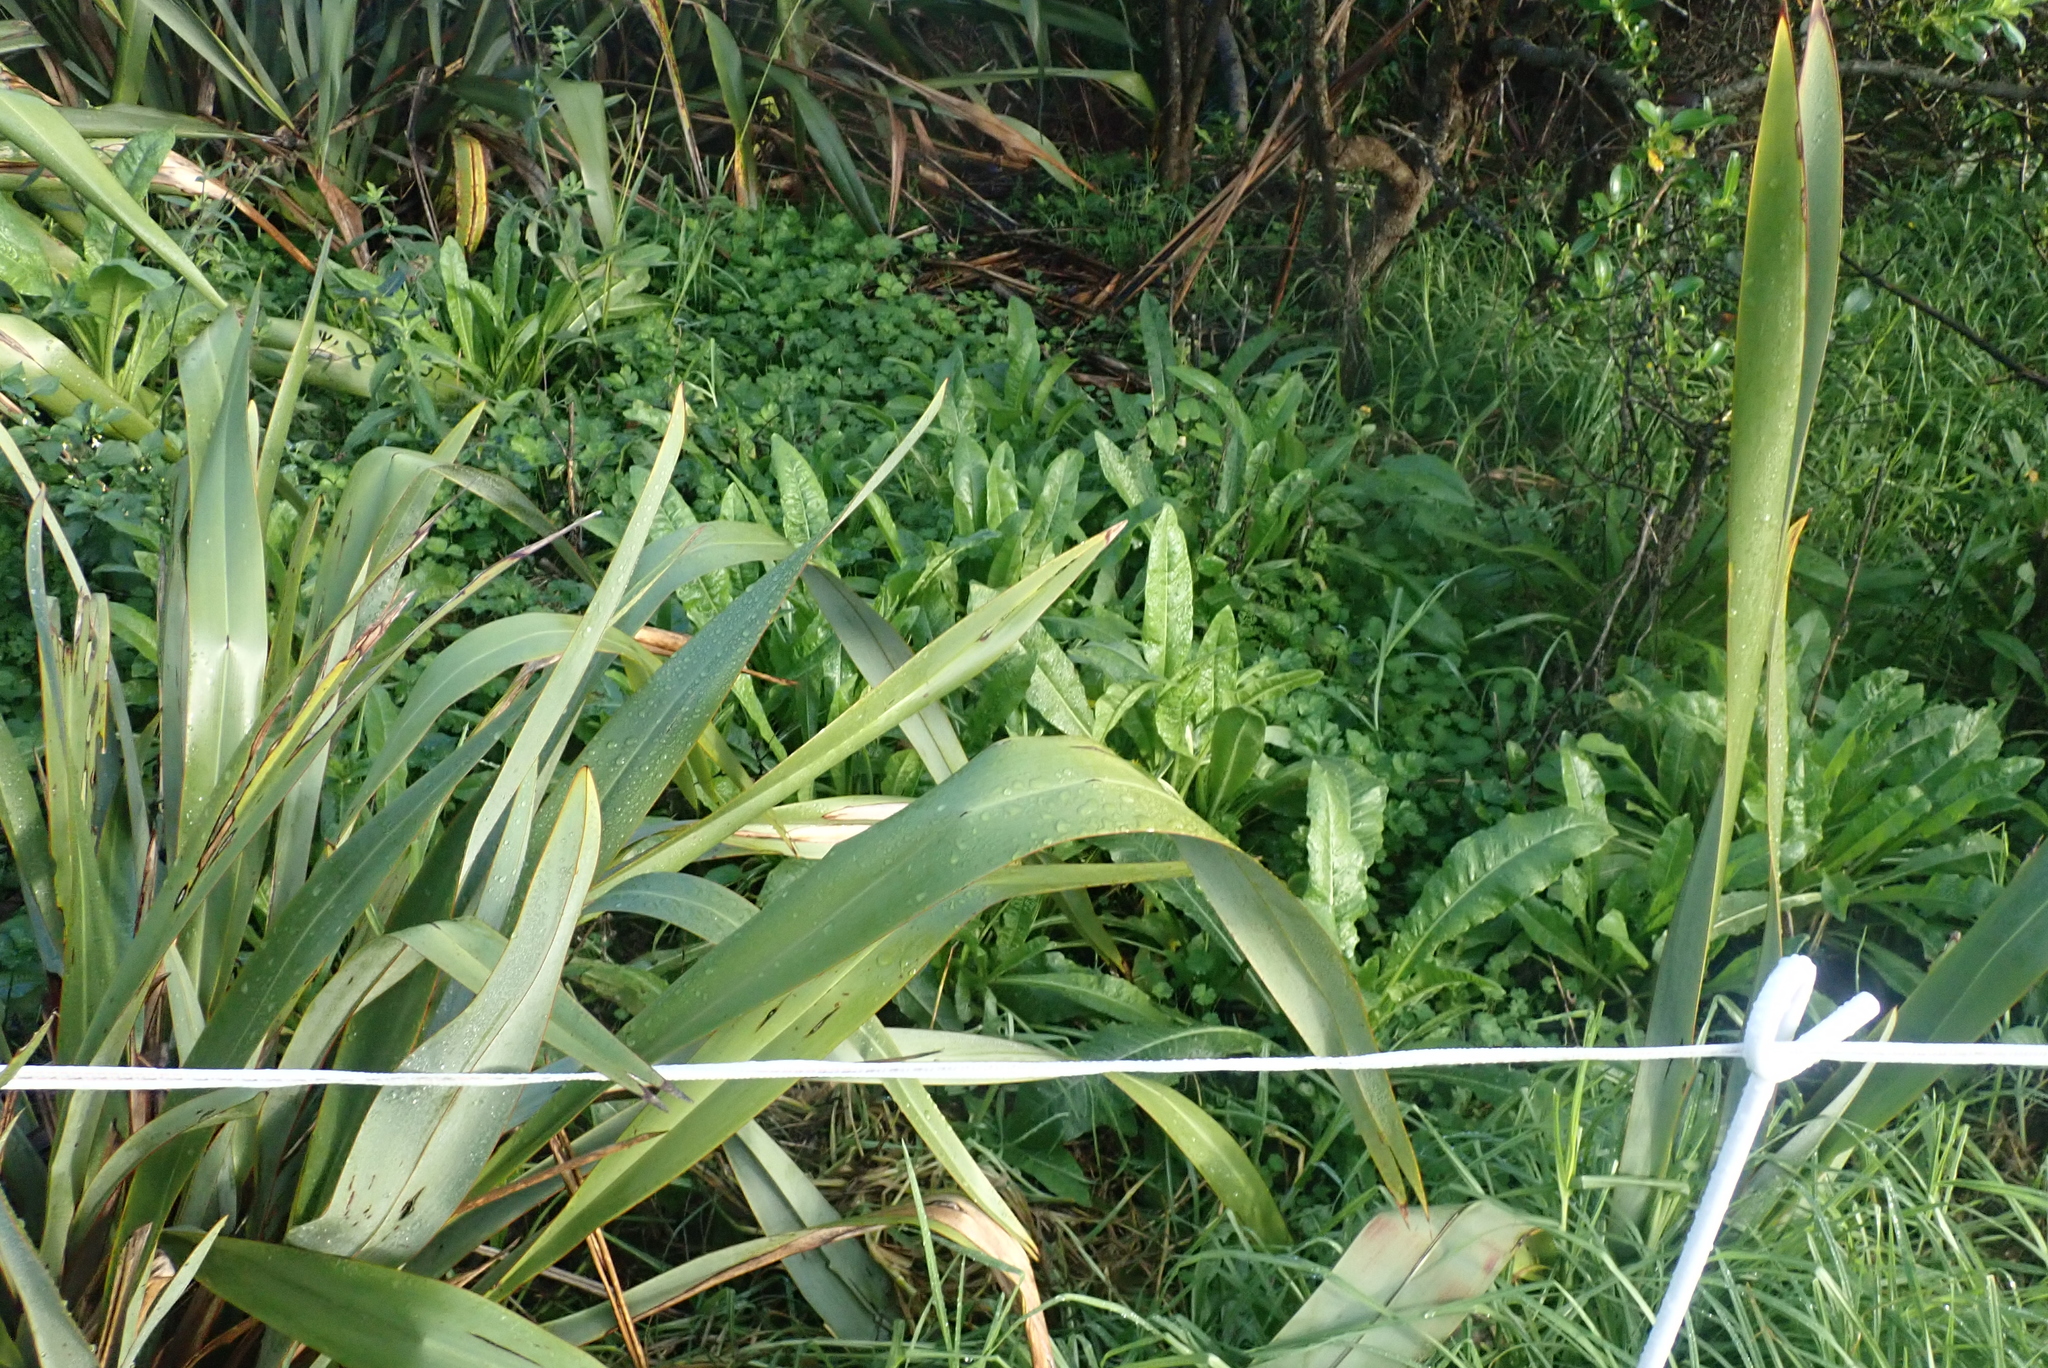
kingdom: Plantae
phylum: Tracheophyta
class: Liliopsida
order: Poales
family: Poaceae
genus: Cenchrus
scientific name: Cenchrus clandestinus
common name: Kikuyugrass
